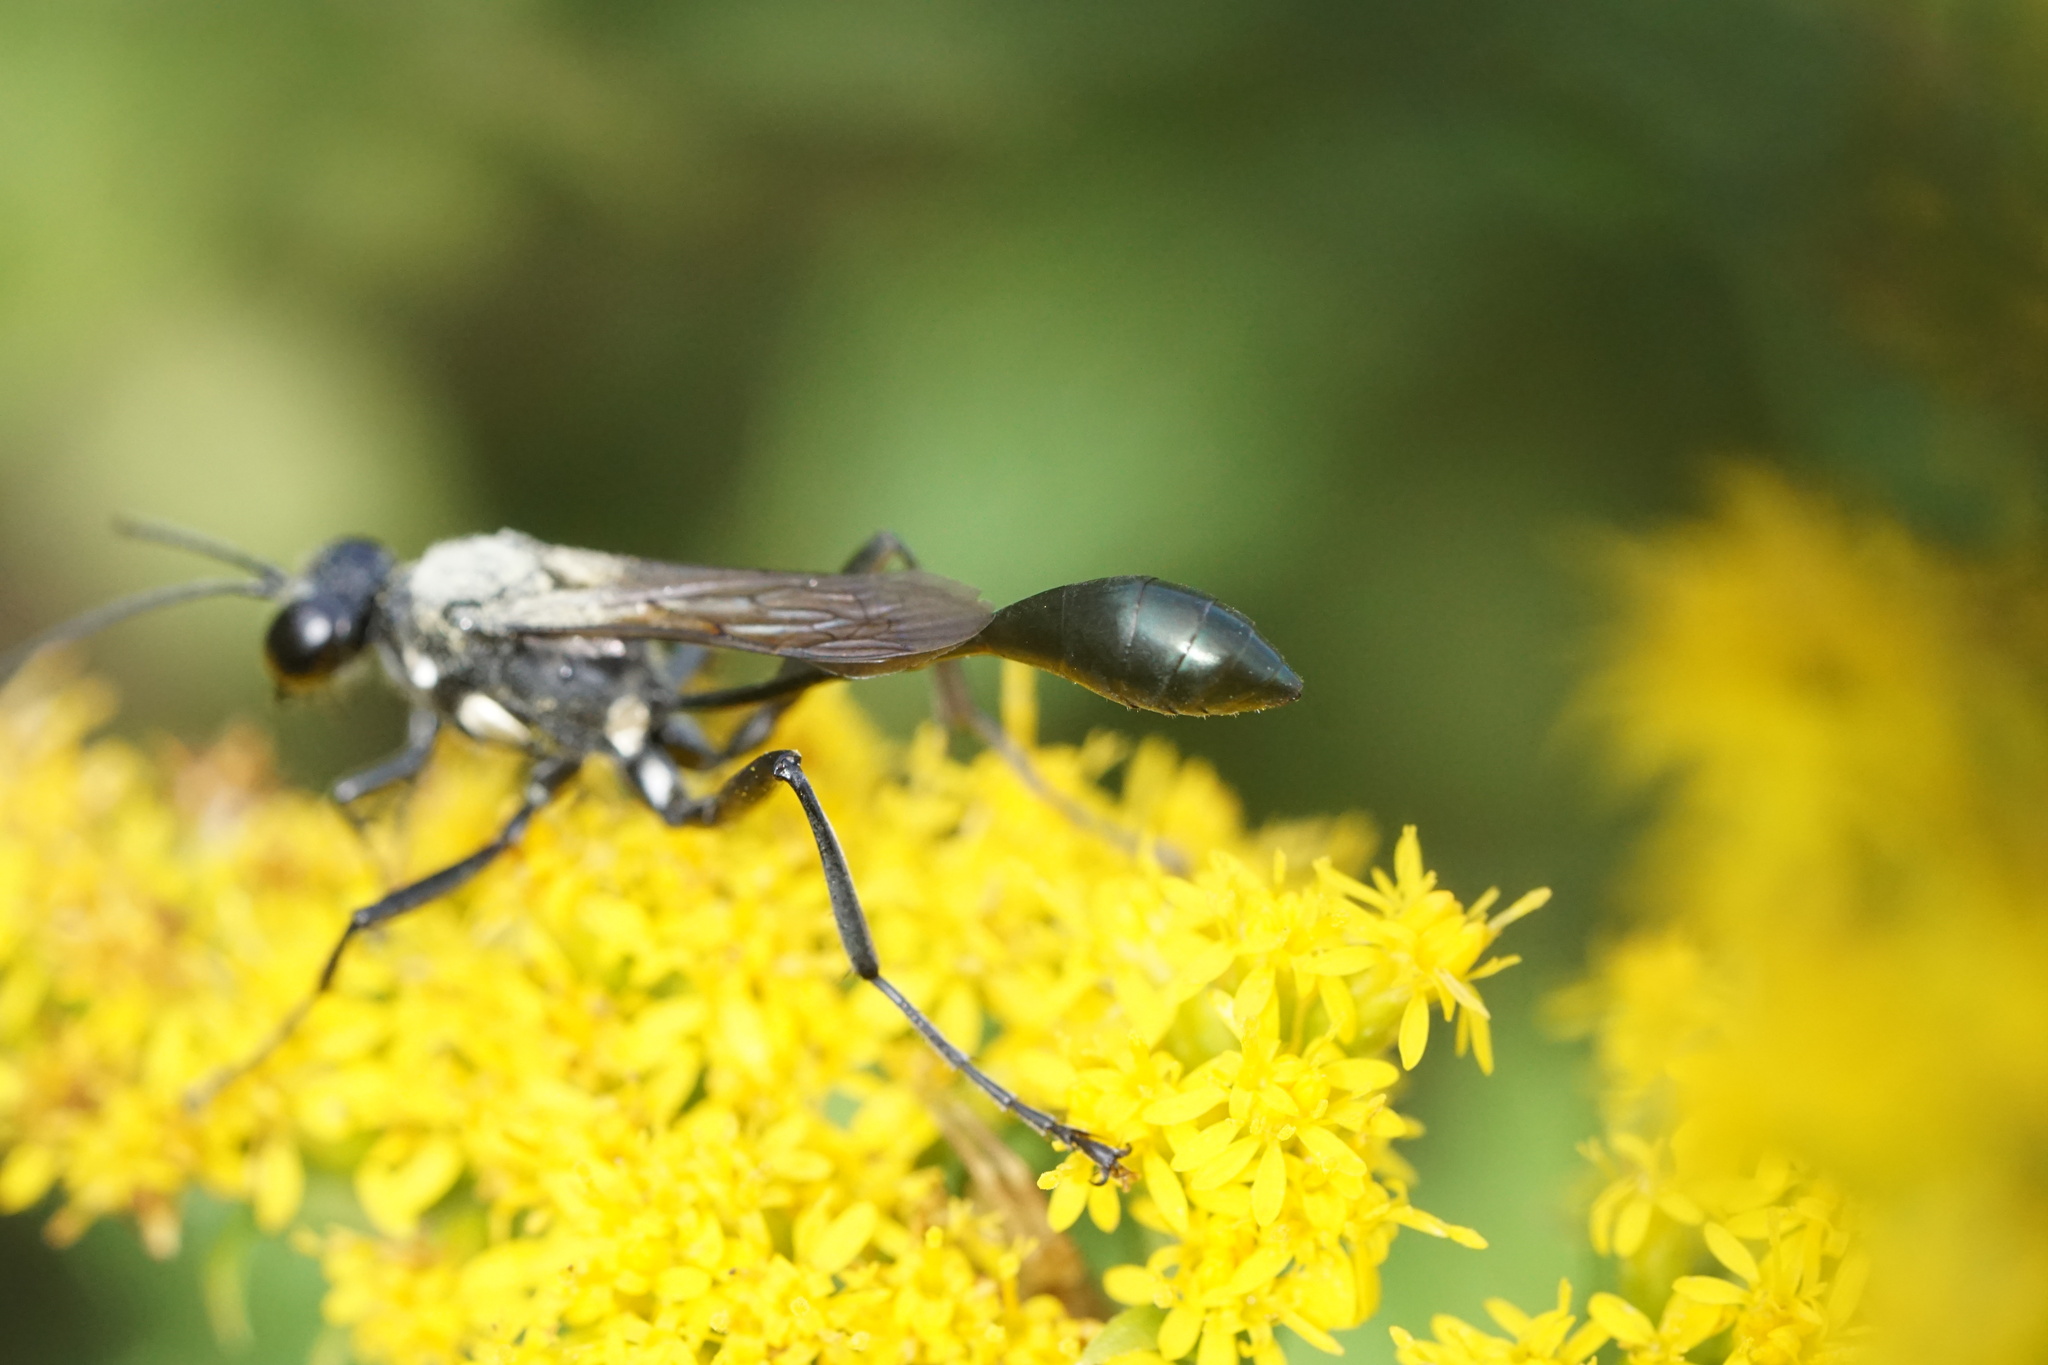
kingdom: Animalia
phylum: Arthropoda
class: Insecta
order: Hymenoptera
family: Sphecidae
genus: Eremnophila
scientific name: Eremnophila aureonotata
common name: Gold-marked thread-waisted wasp
